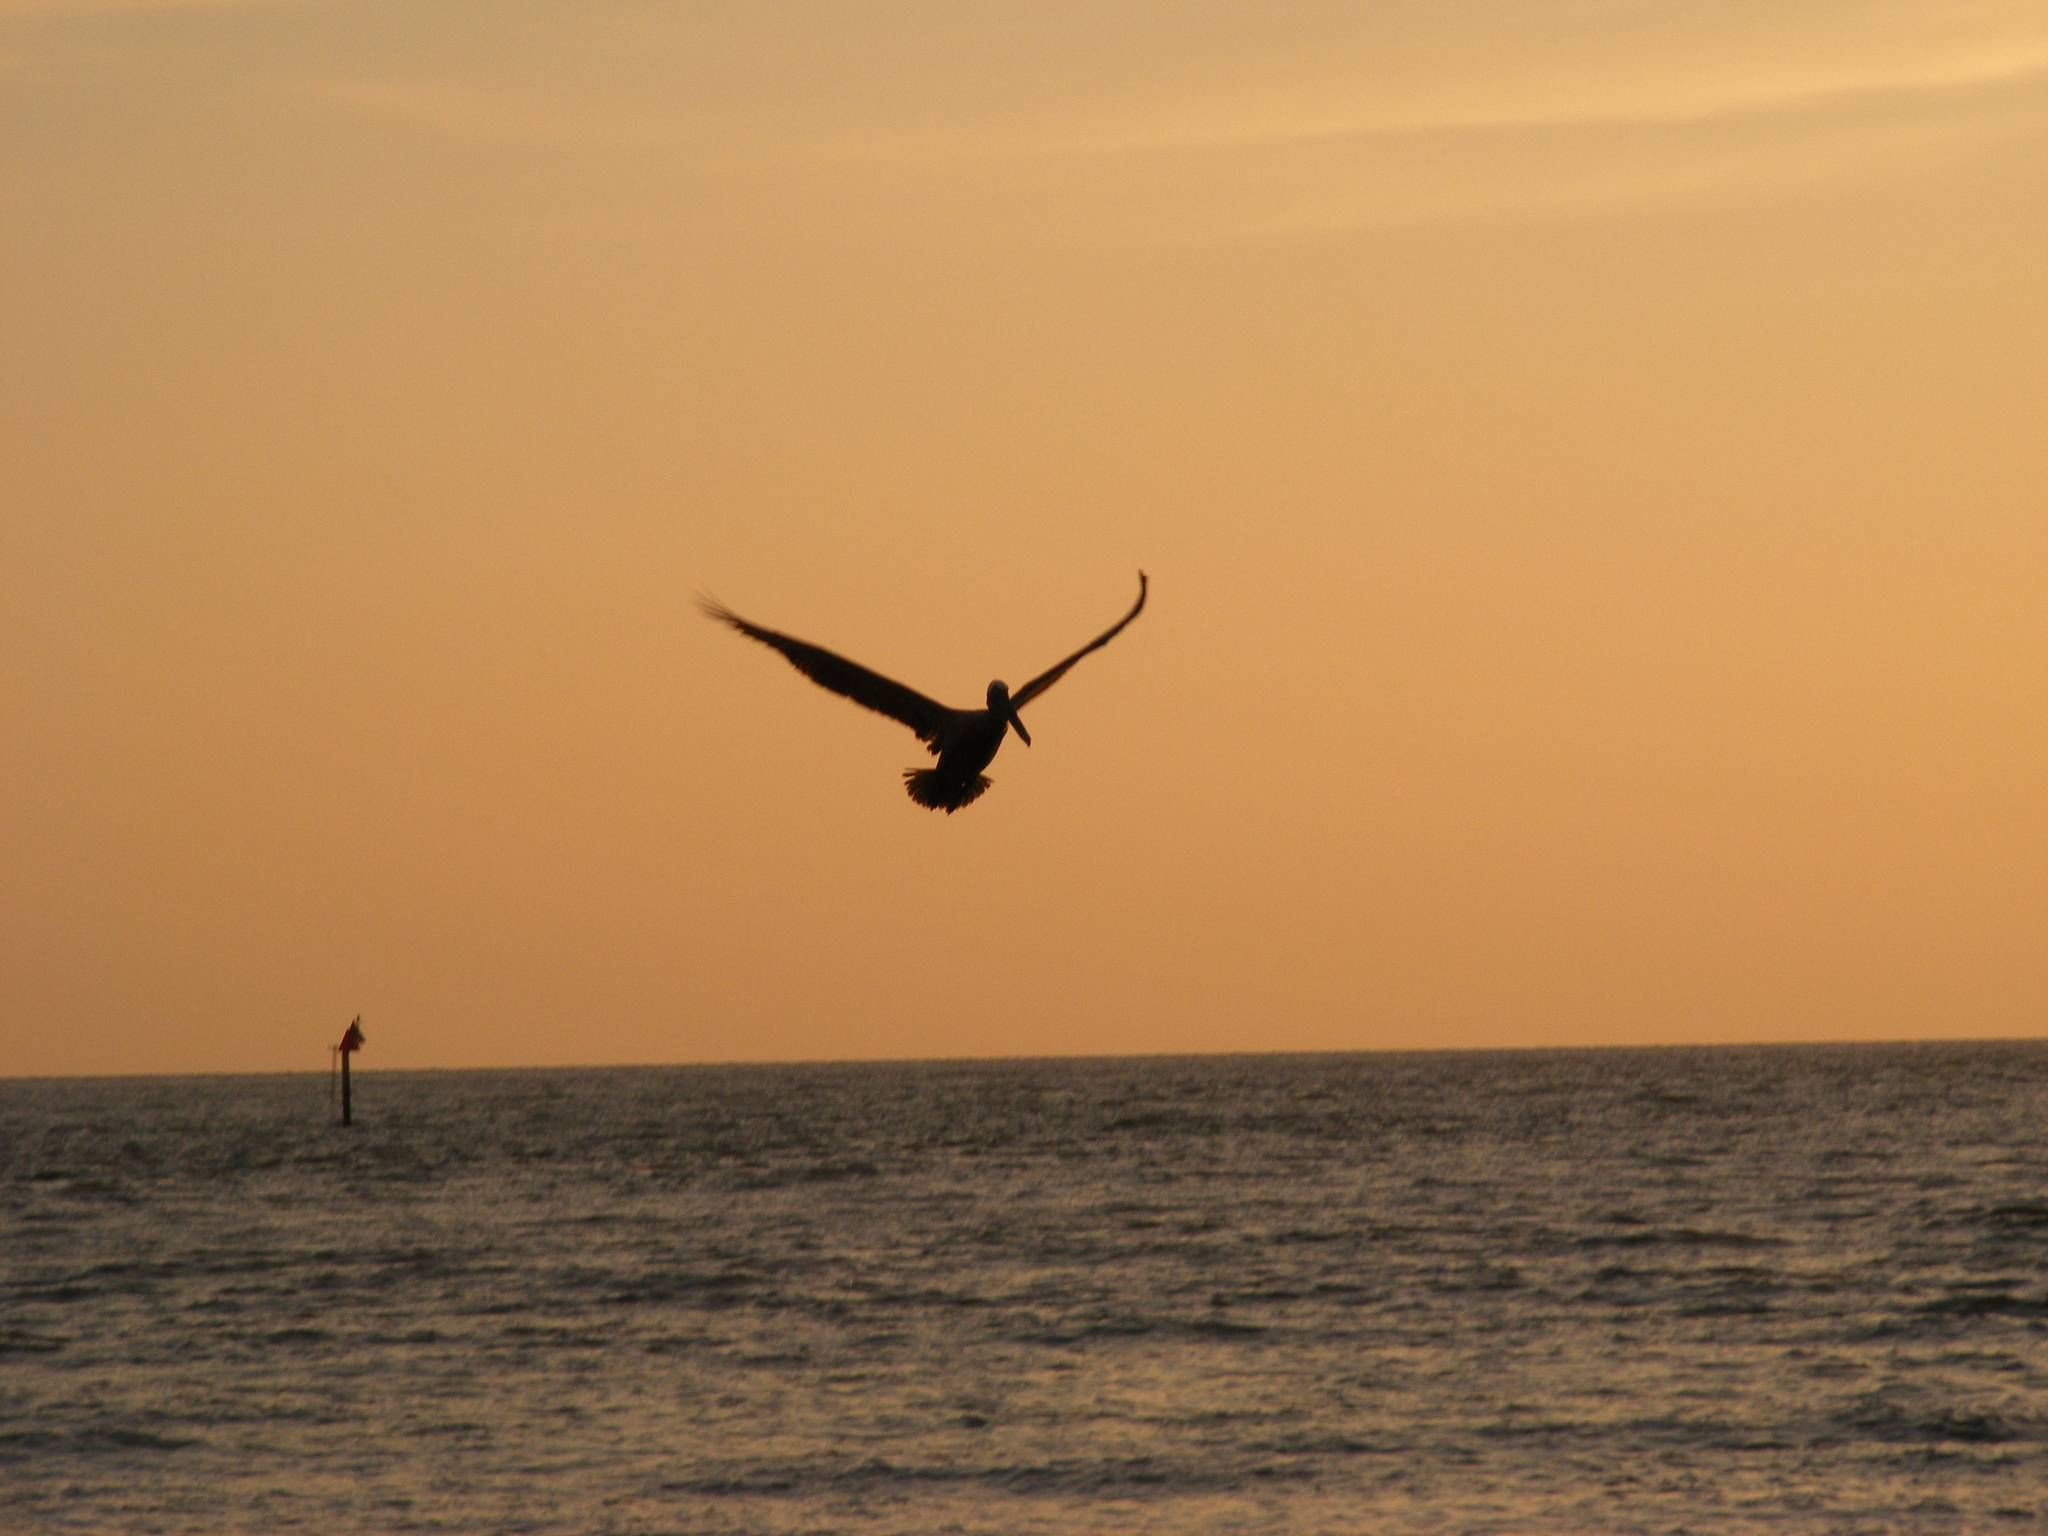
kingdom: Animalia
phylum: Chordata
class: Aves
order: Pelecaniformes
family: Pelecanidae
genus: Pelecanus
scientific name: Pelecanus occidentalis
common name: Brown pelican
